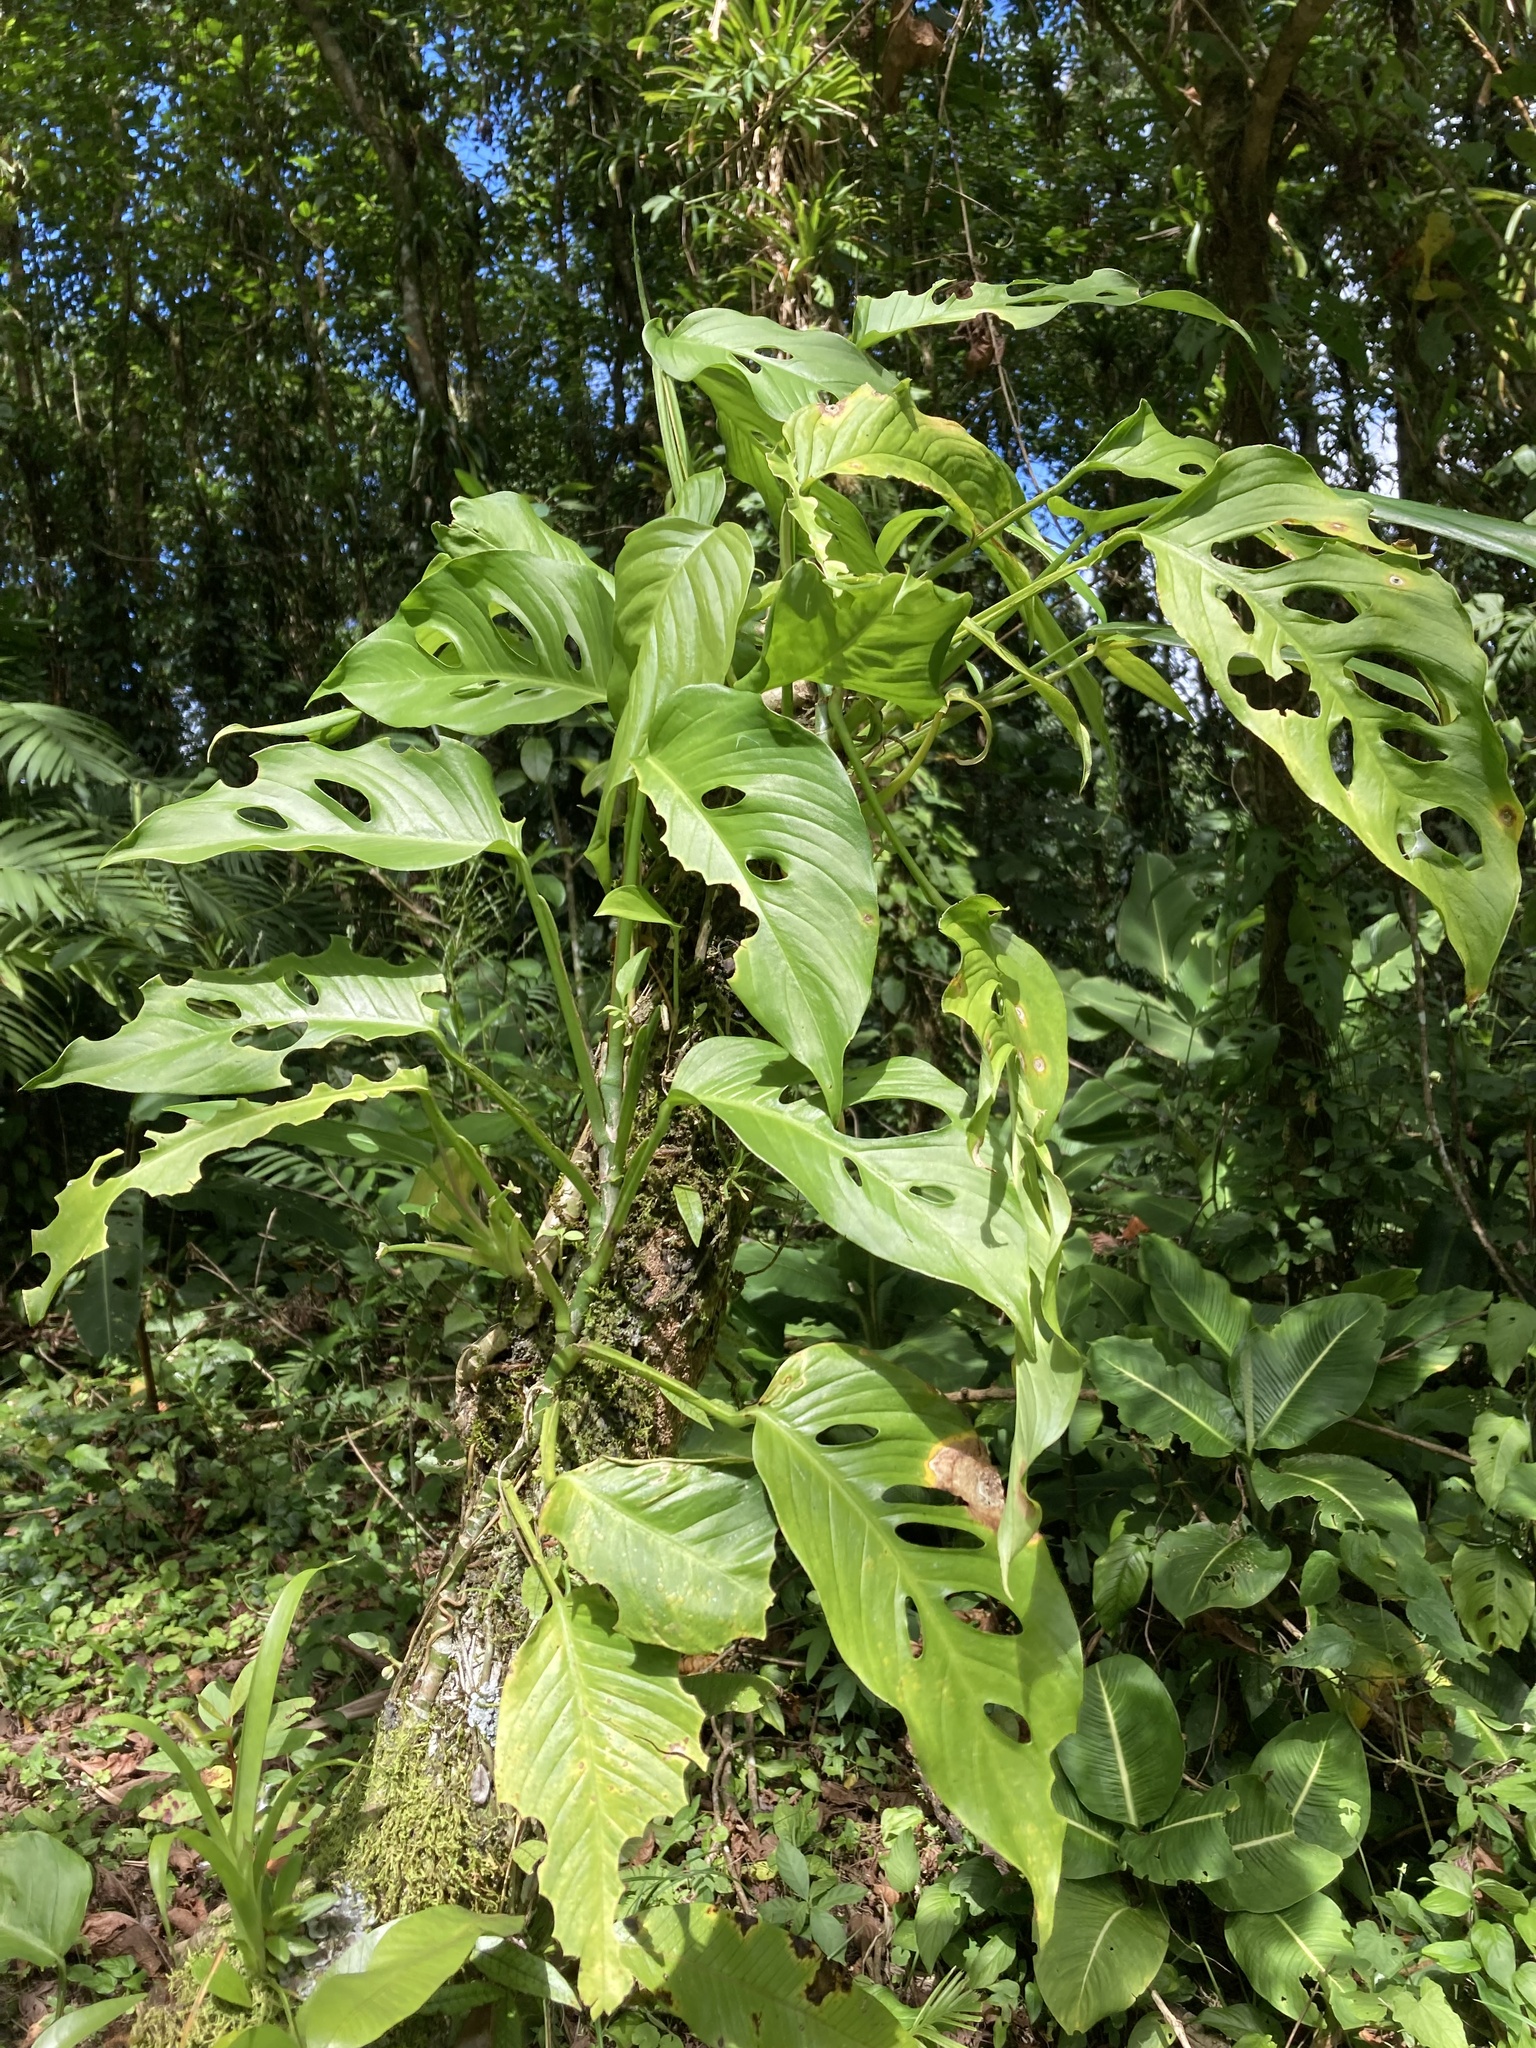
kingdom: Plantae
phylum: Tracheophyta
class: Liliopsida
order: Alismatales
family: Araceae
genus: Monstera
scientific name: Monstera adansonii
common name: Tarovine
